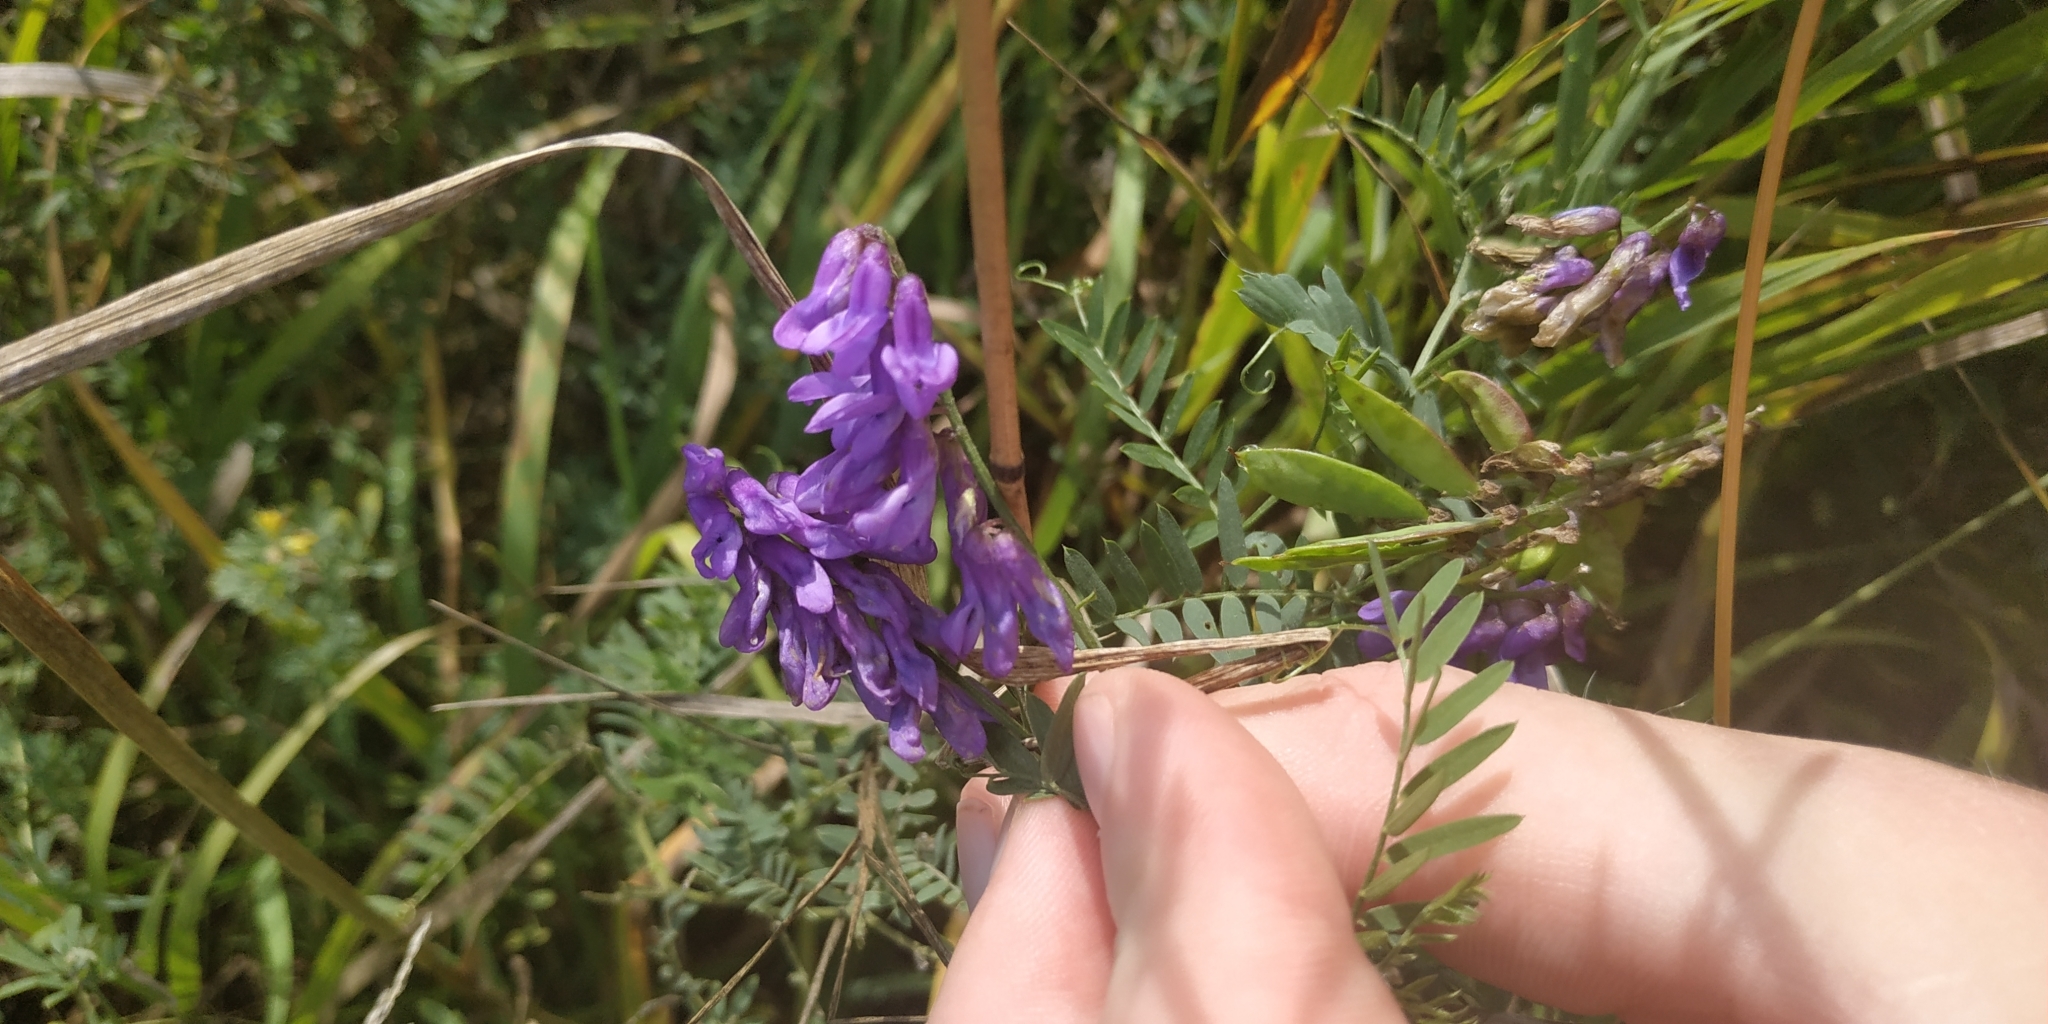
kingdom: Plantae
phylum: Tracheophyta
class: Magnoliopsida
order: Fabales
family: Fabaceae
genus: Vicia
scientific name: Vicia cracca
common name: Bird vetch
